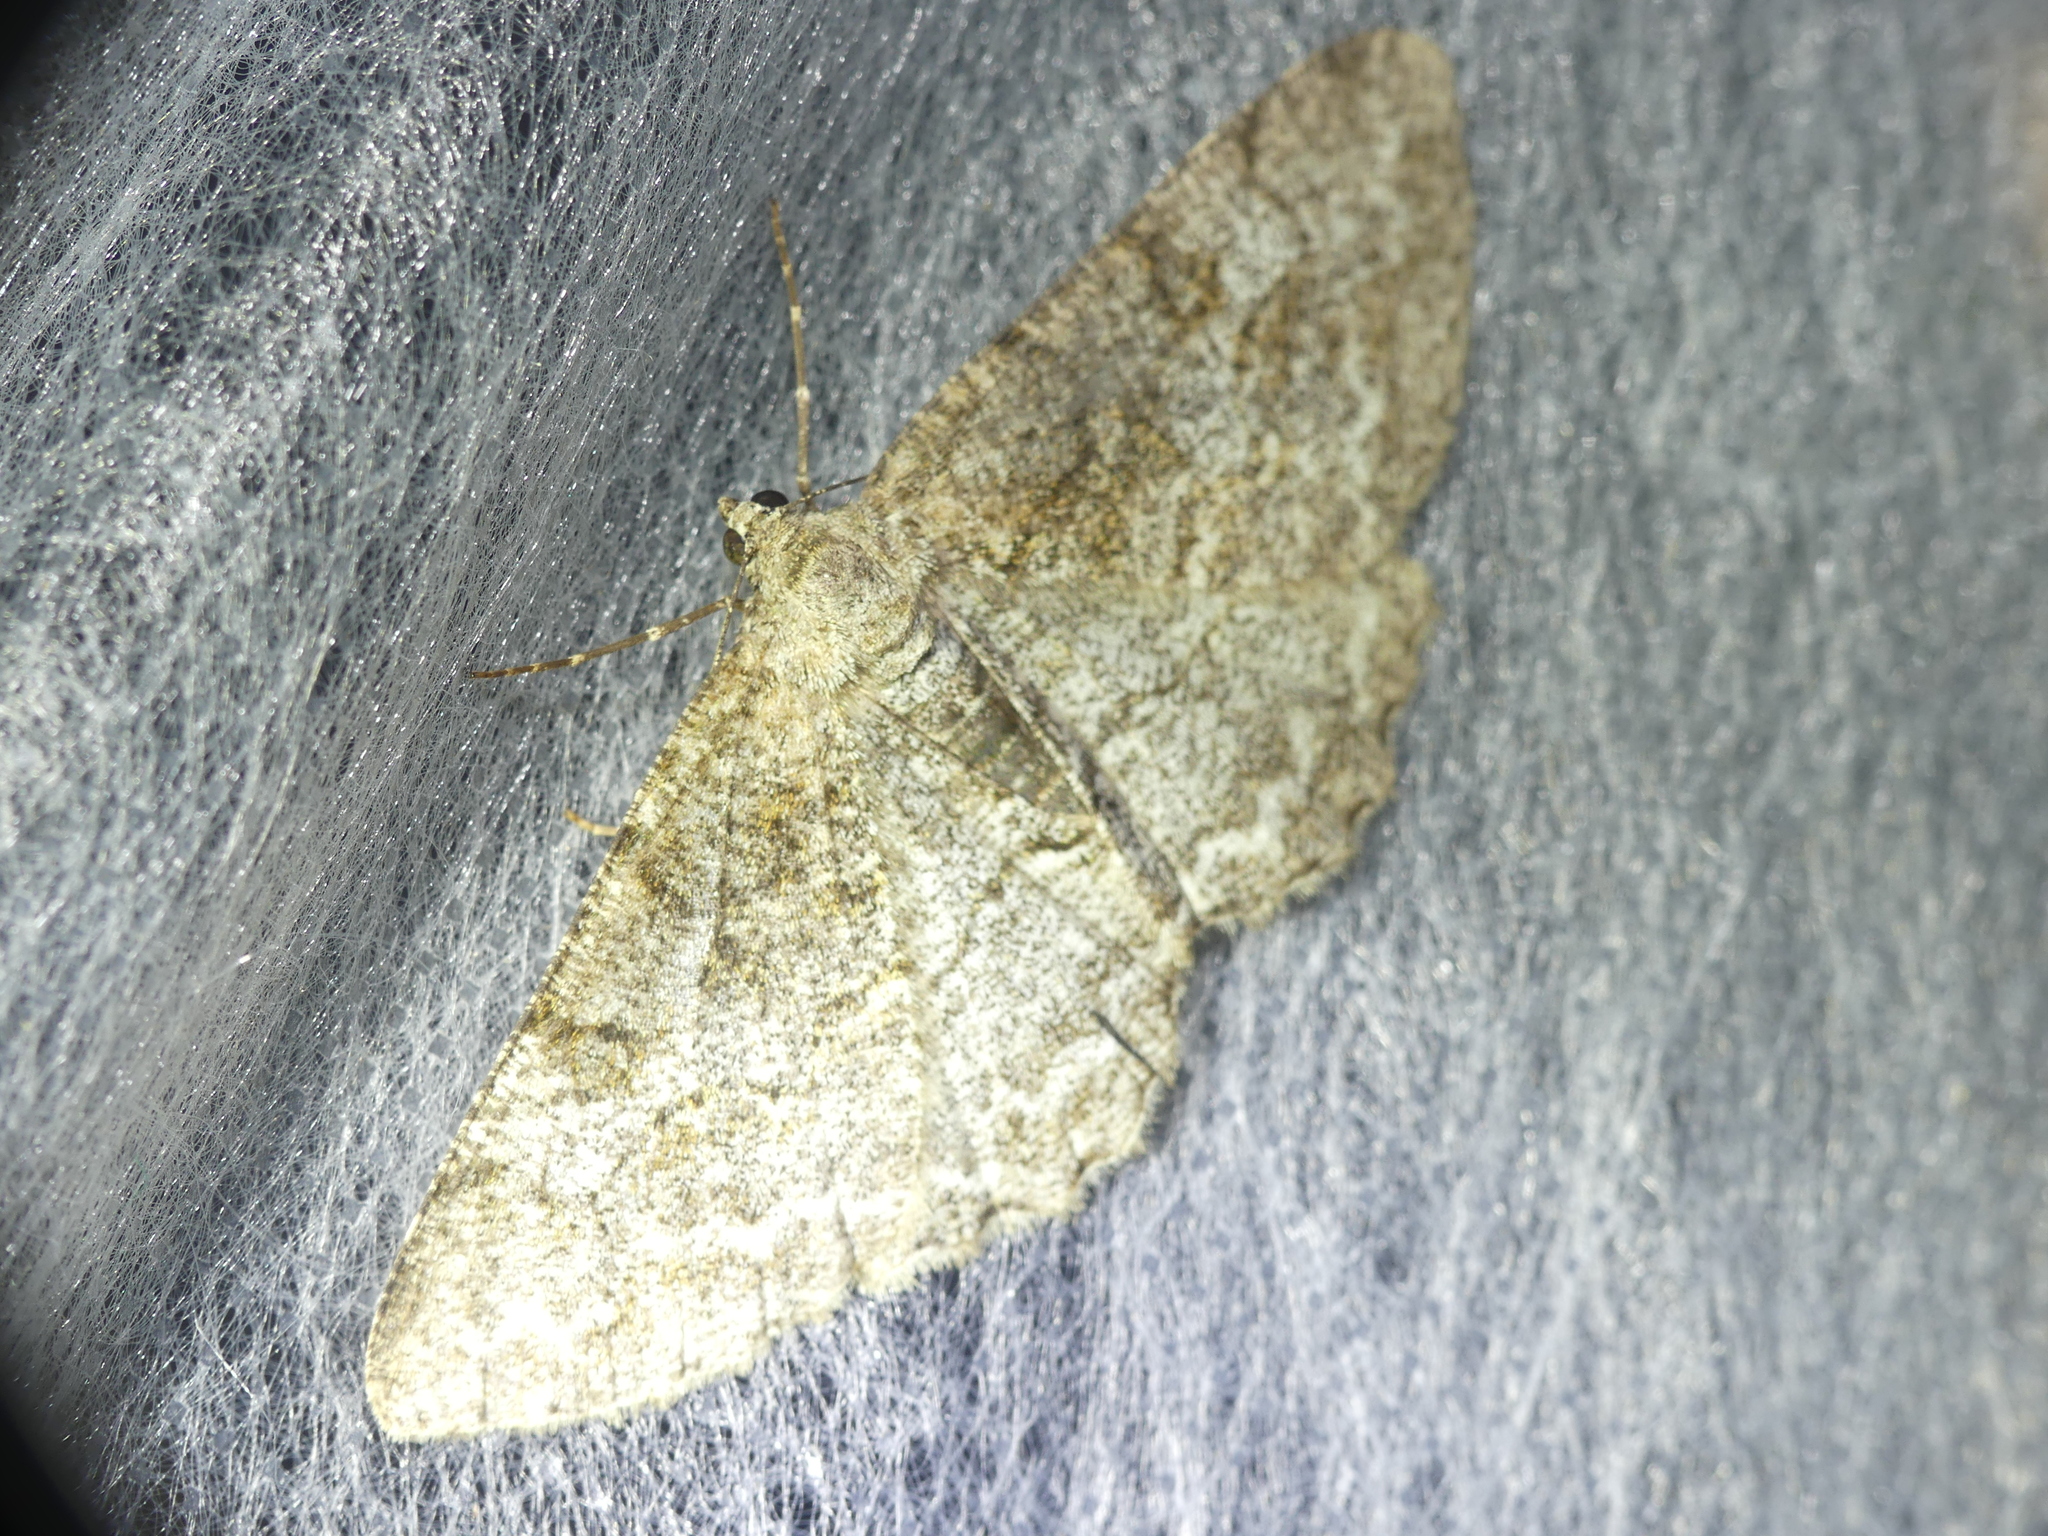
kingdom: Animalia
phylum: Arthropoda
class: Insecta
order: Lepidoptera
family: Geometridae
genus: Alcis
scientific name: Alcis repandata
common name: Mottled beauty
